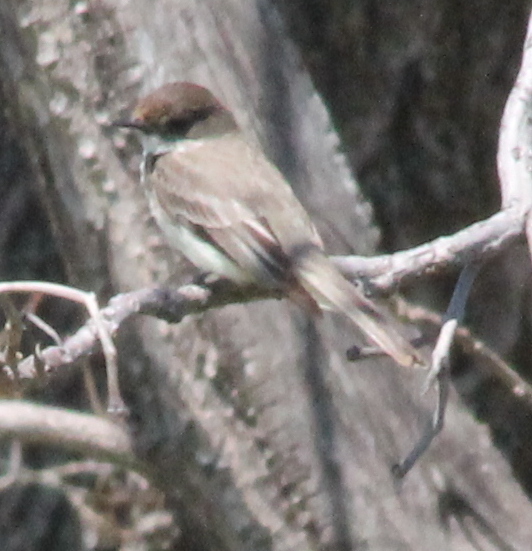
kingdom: Animalia
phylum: Chordata
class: Aves
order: Passeriformes
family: Tyrannidae
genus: Sayornis
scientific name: Sayornis phoebe
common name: Eastern phoebe
